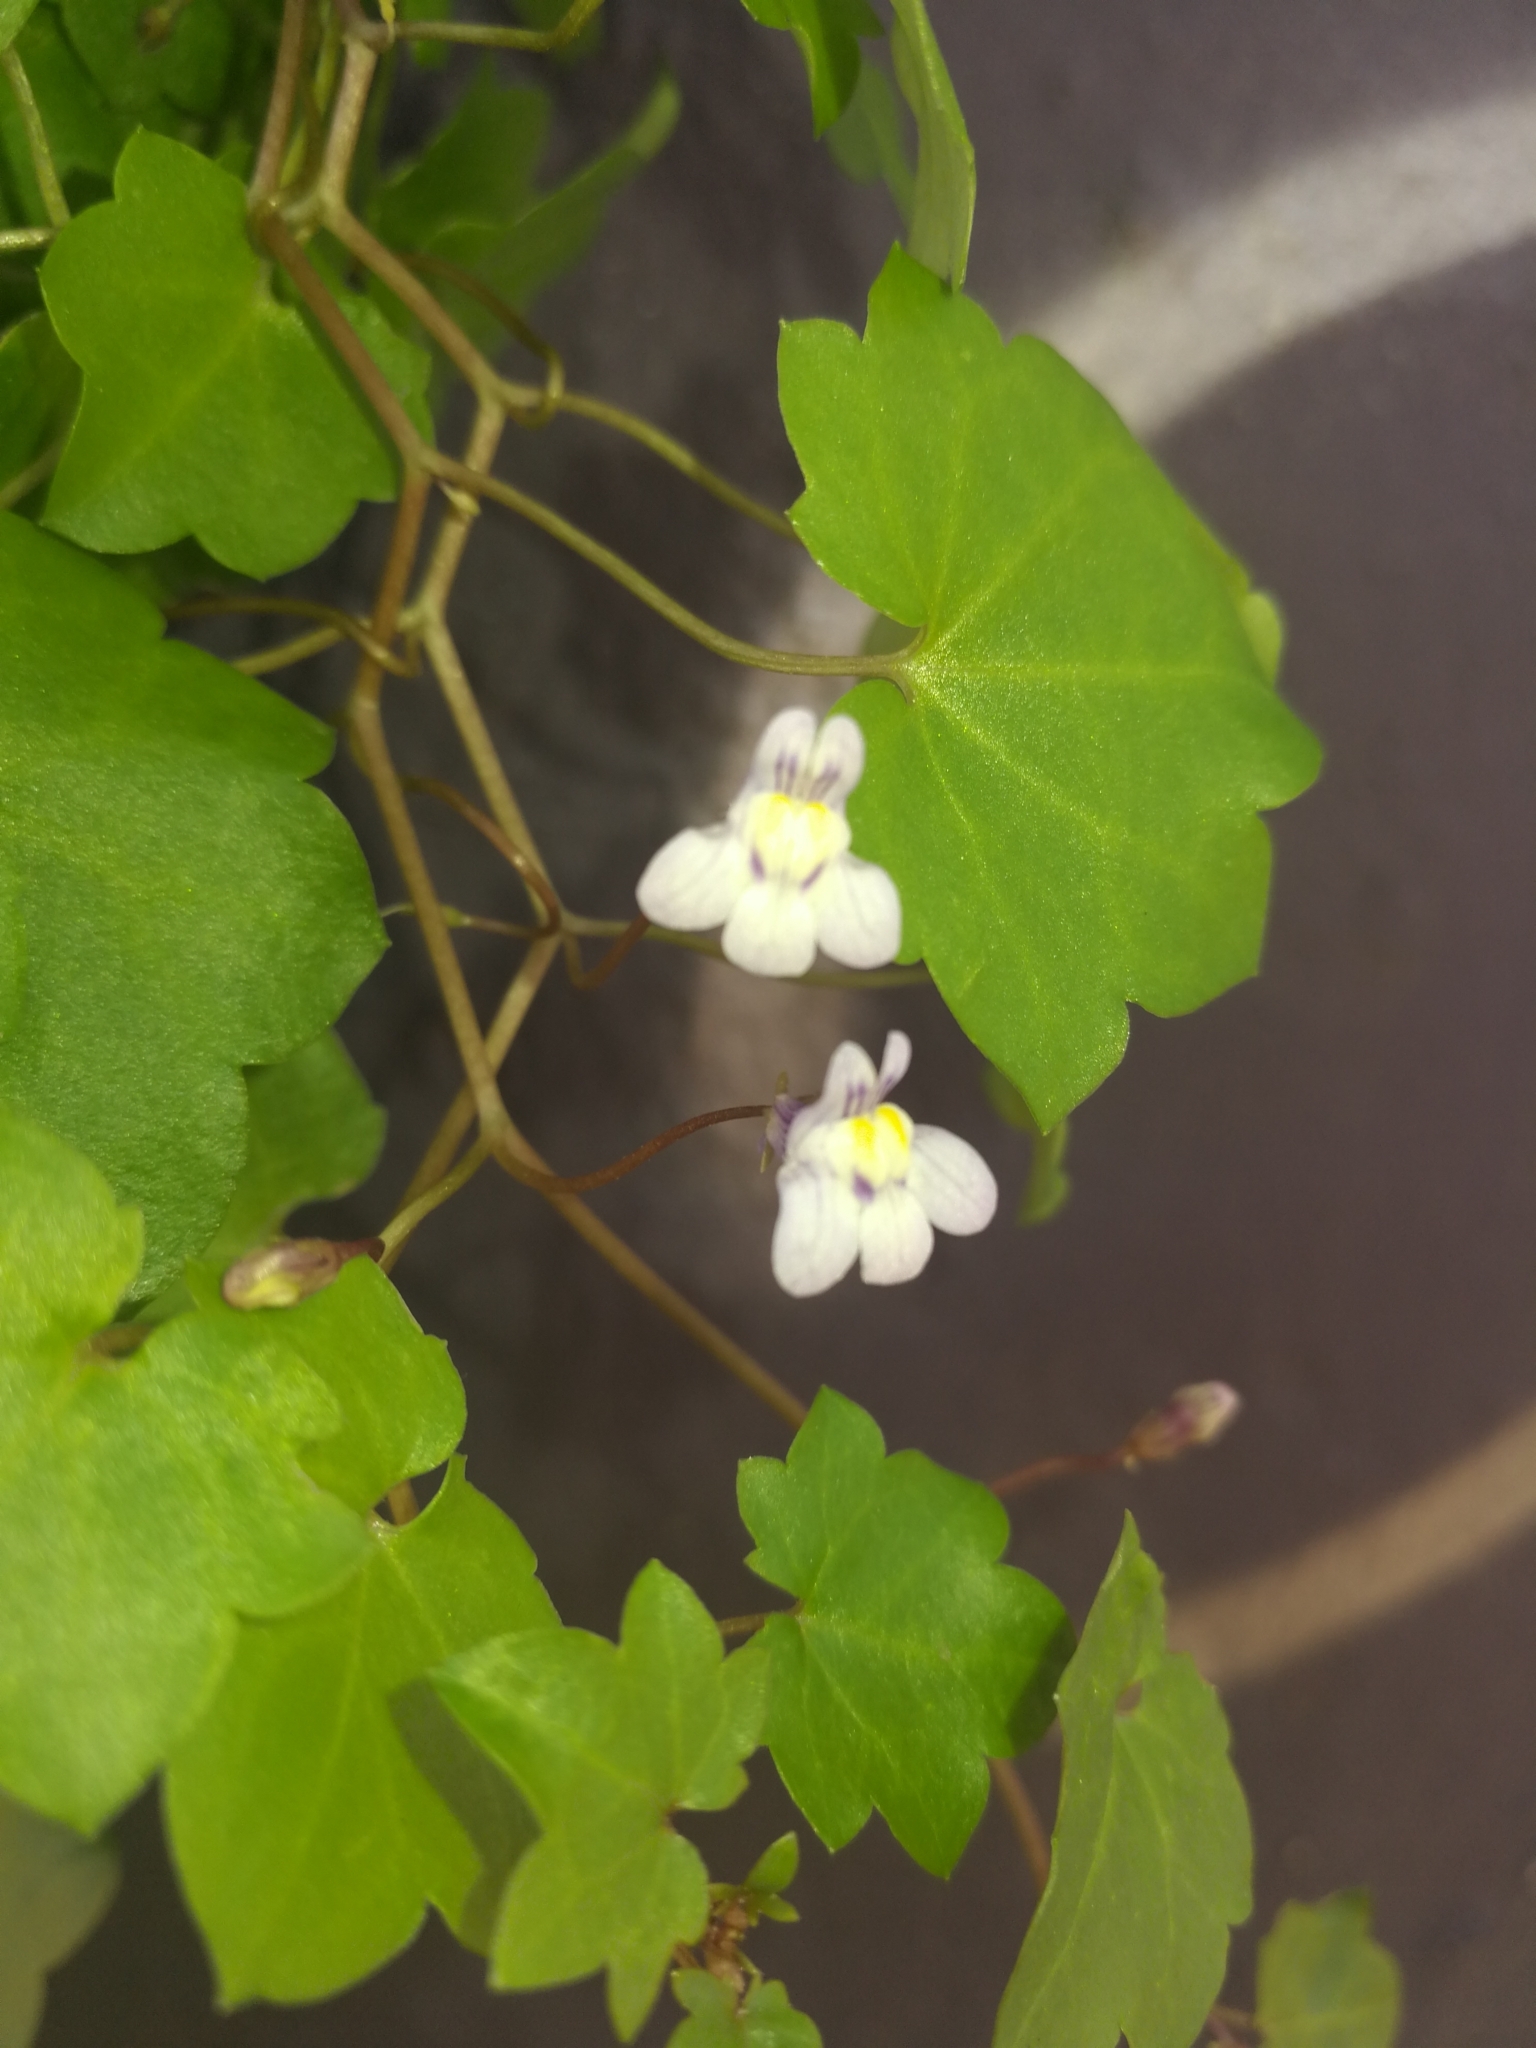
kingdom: Plantae
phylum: Tracheophyta
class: Magnoliopsida
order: Lamiales
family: Plantaginaceae
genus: Cymbalaria
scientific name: Cymbalaria muralis
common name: Ivy-leaved toadflax
